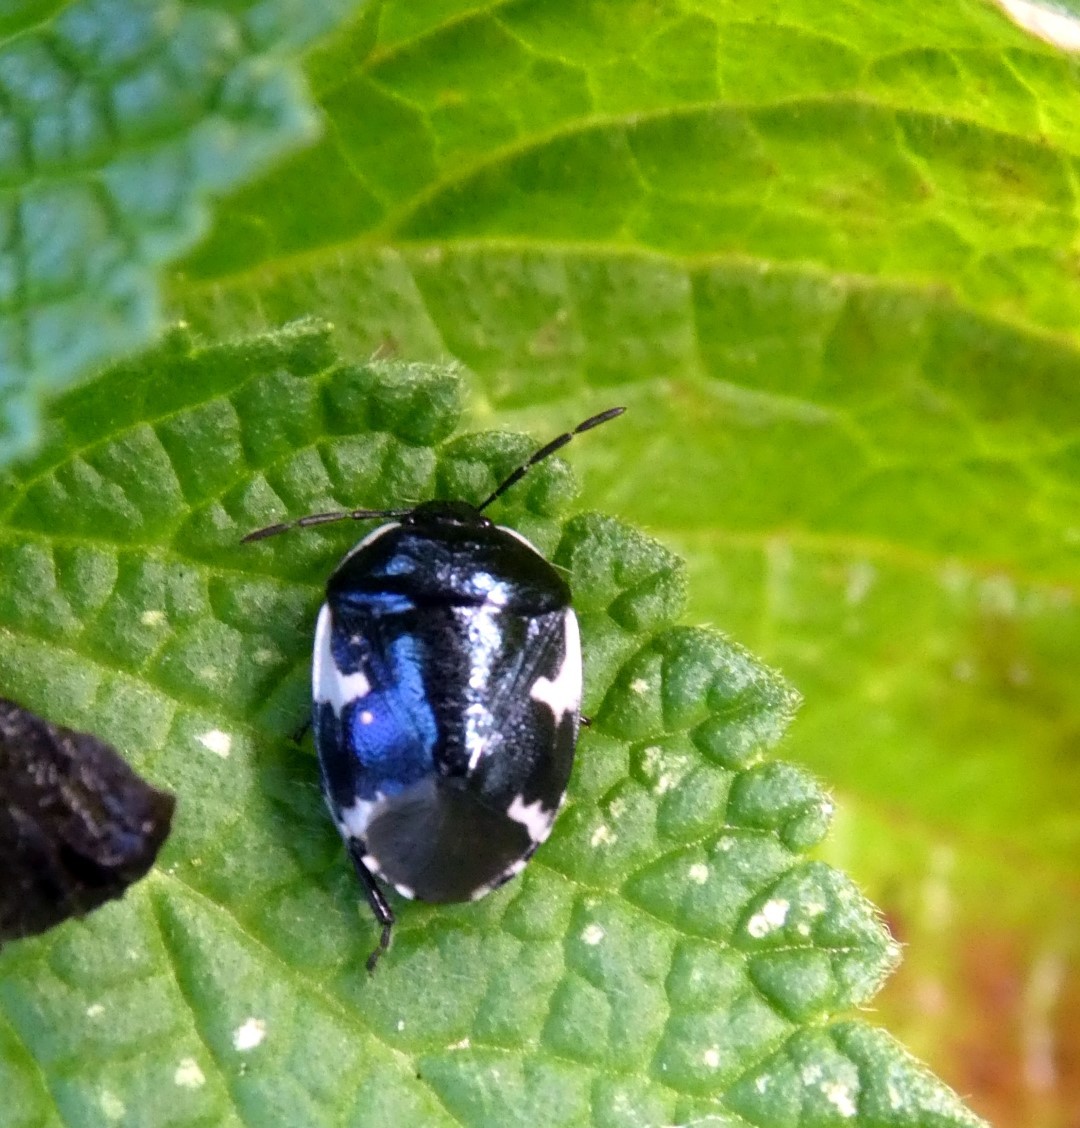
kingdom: Animalia
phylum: Arthropoda
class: Insecta
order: Hemiptera
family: Cydnidae
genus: Tritomegas
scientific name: Tritomegas sexmaculatus
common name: Rambur's pied shieldbug
